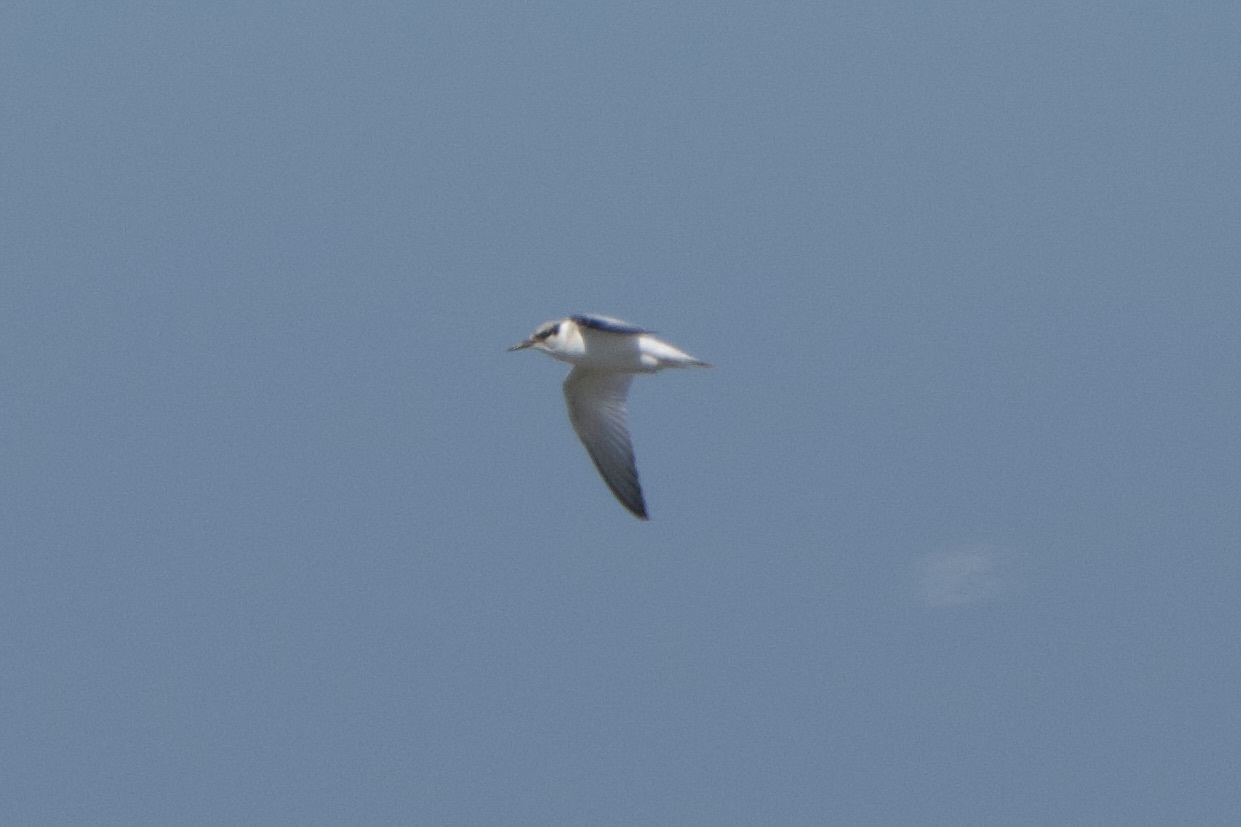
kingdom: Animalia
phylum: Chordata
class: Aves
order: Charadriiformes
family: Laridae
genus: Sternula
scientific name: Sternula antillarum
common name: Least tern
